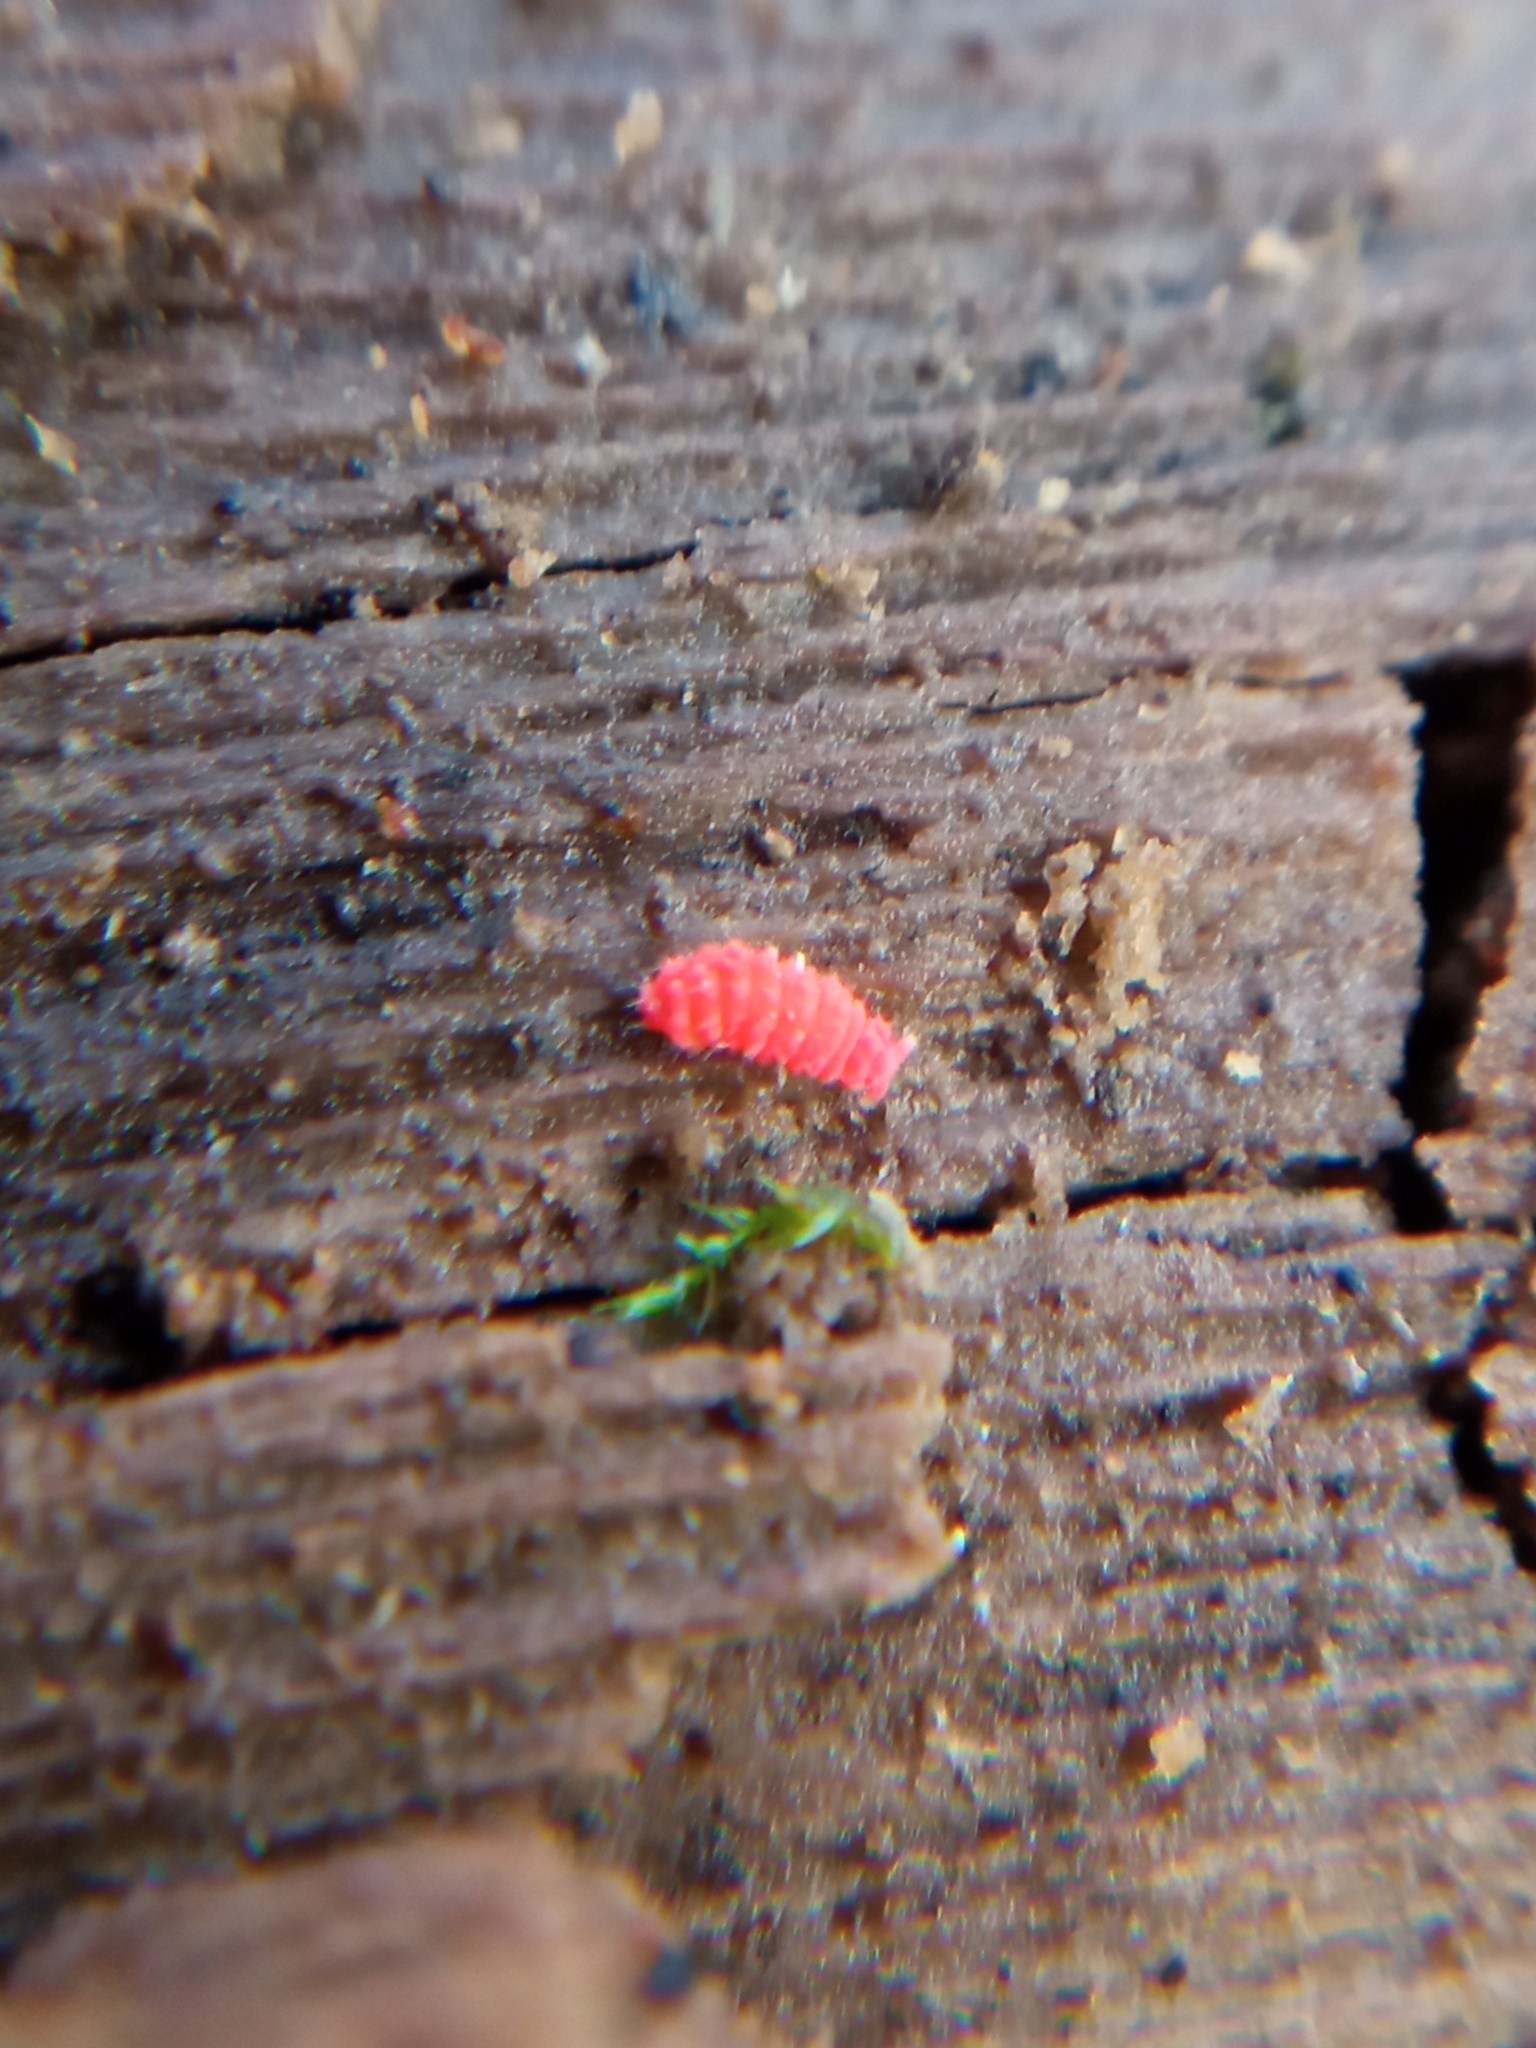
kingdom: Animalia
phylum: Arthropoda
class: Collembola
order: Poduromorpha
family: Neanuridae
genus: Bilobella
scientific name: Bilobella braunerae
